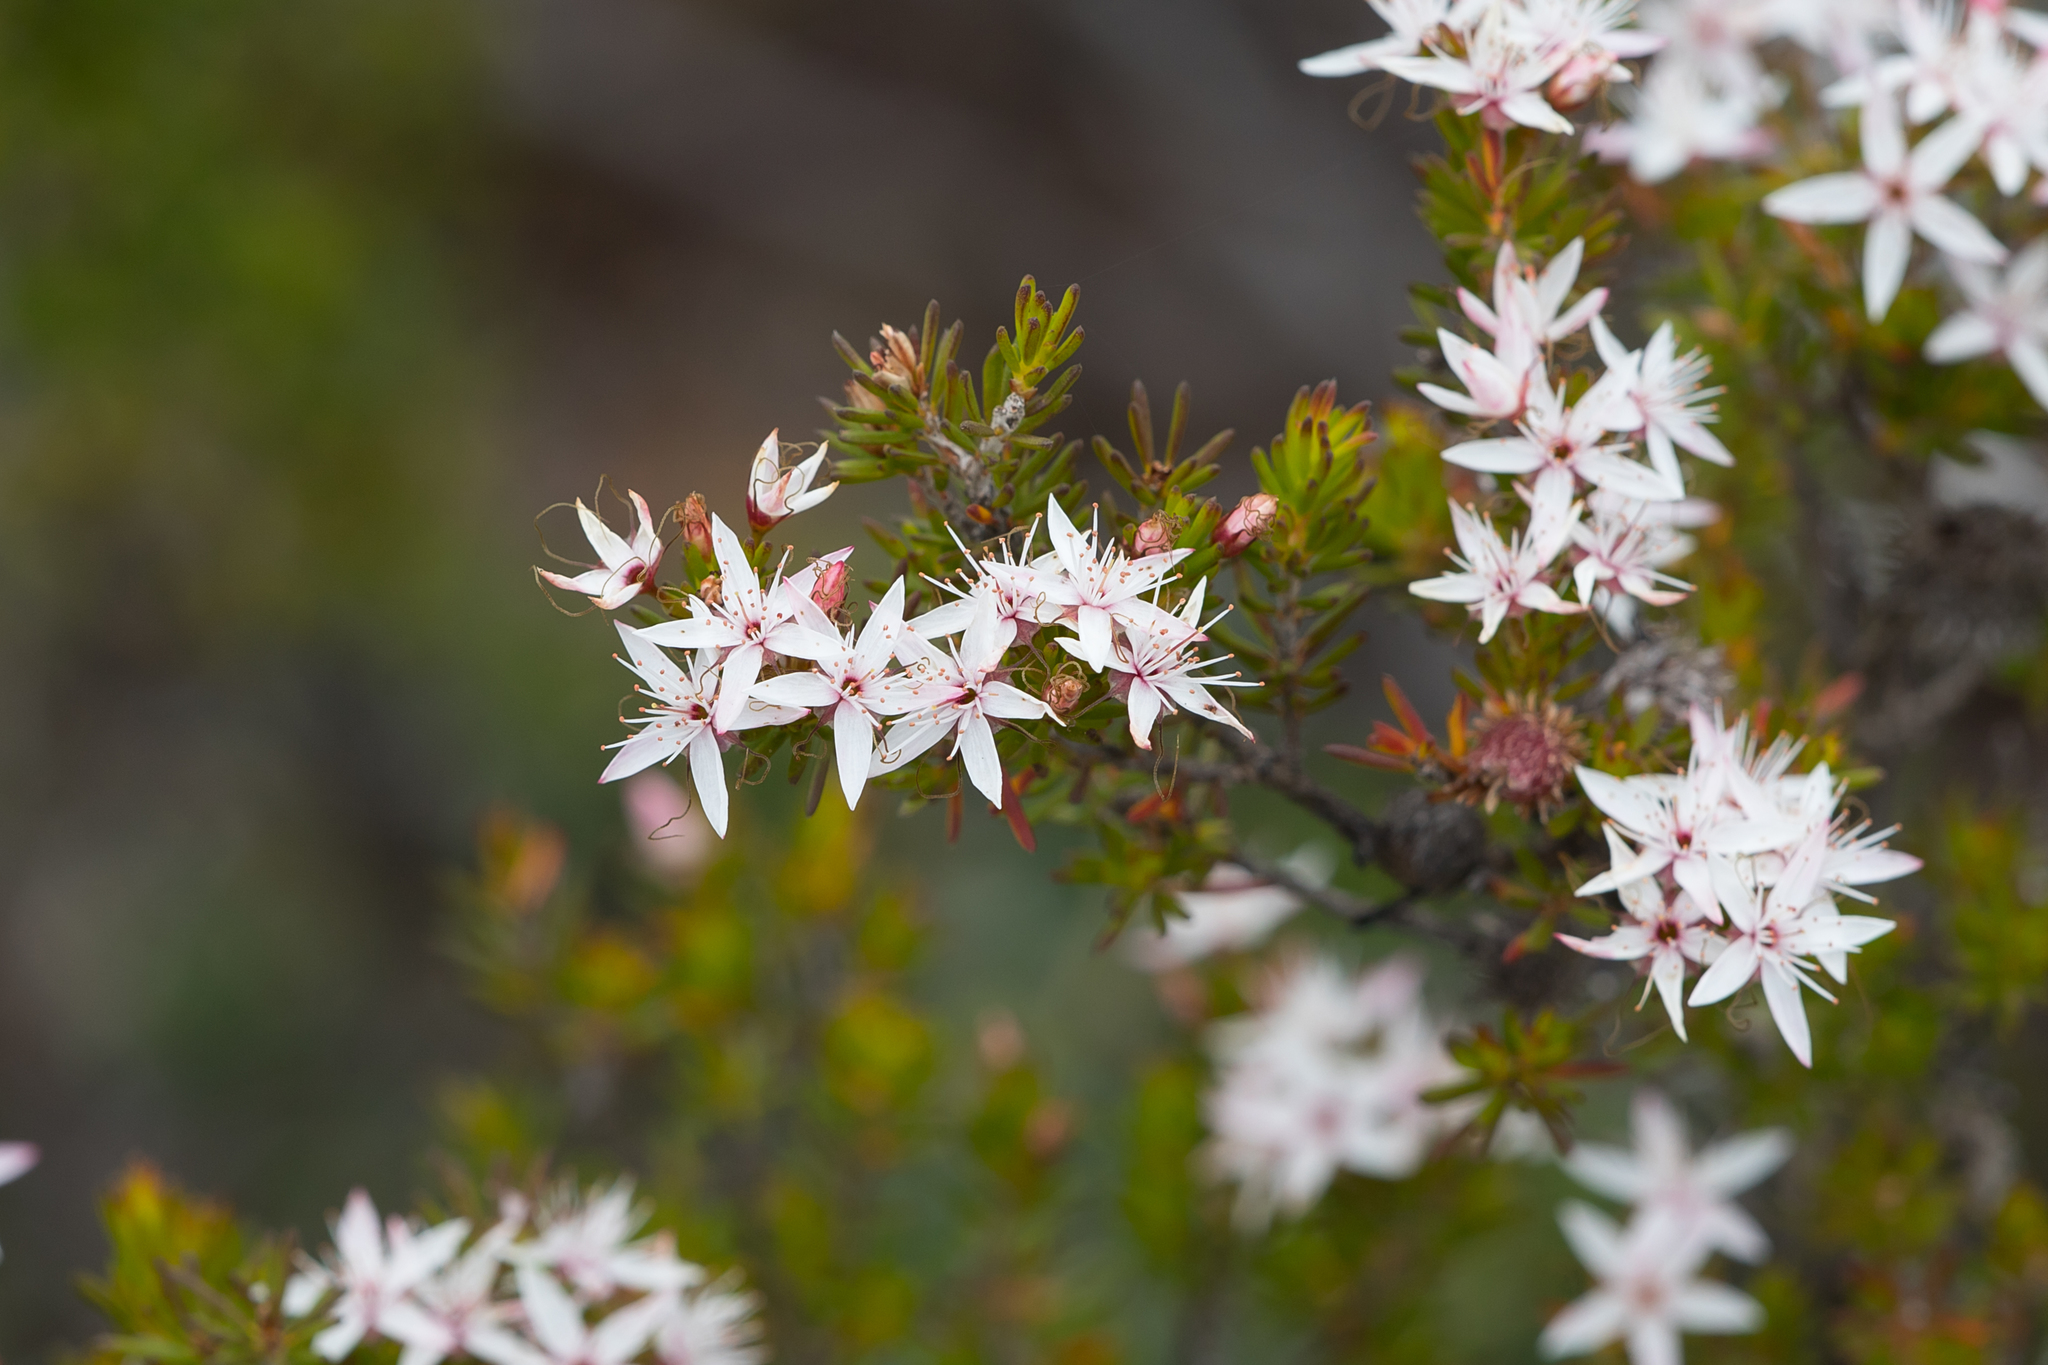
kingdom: Plantae
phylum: Tracheophyta
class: Magnoliopsida
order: Myrtales
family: Myrtaceae
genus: Calytrix
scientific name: Calytrix tetragona
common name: Common fringe myrtle
